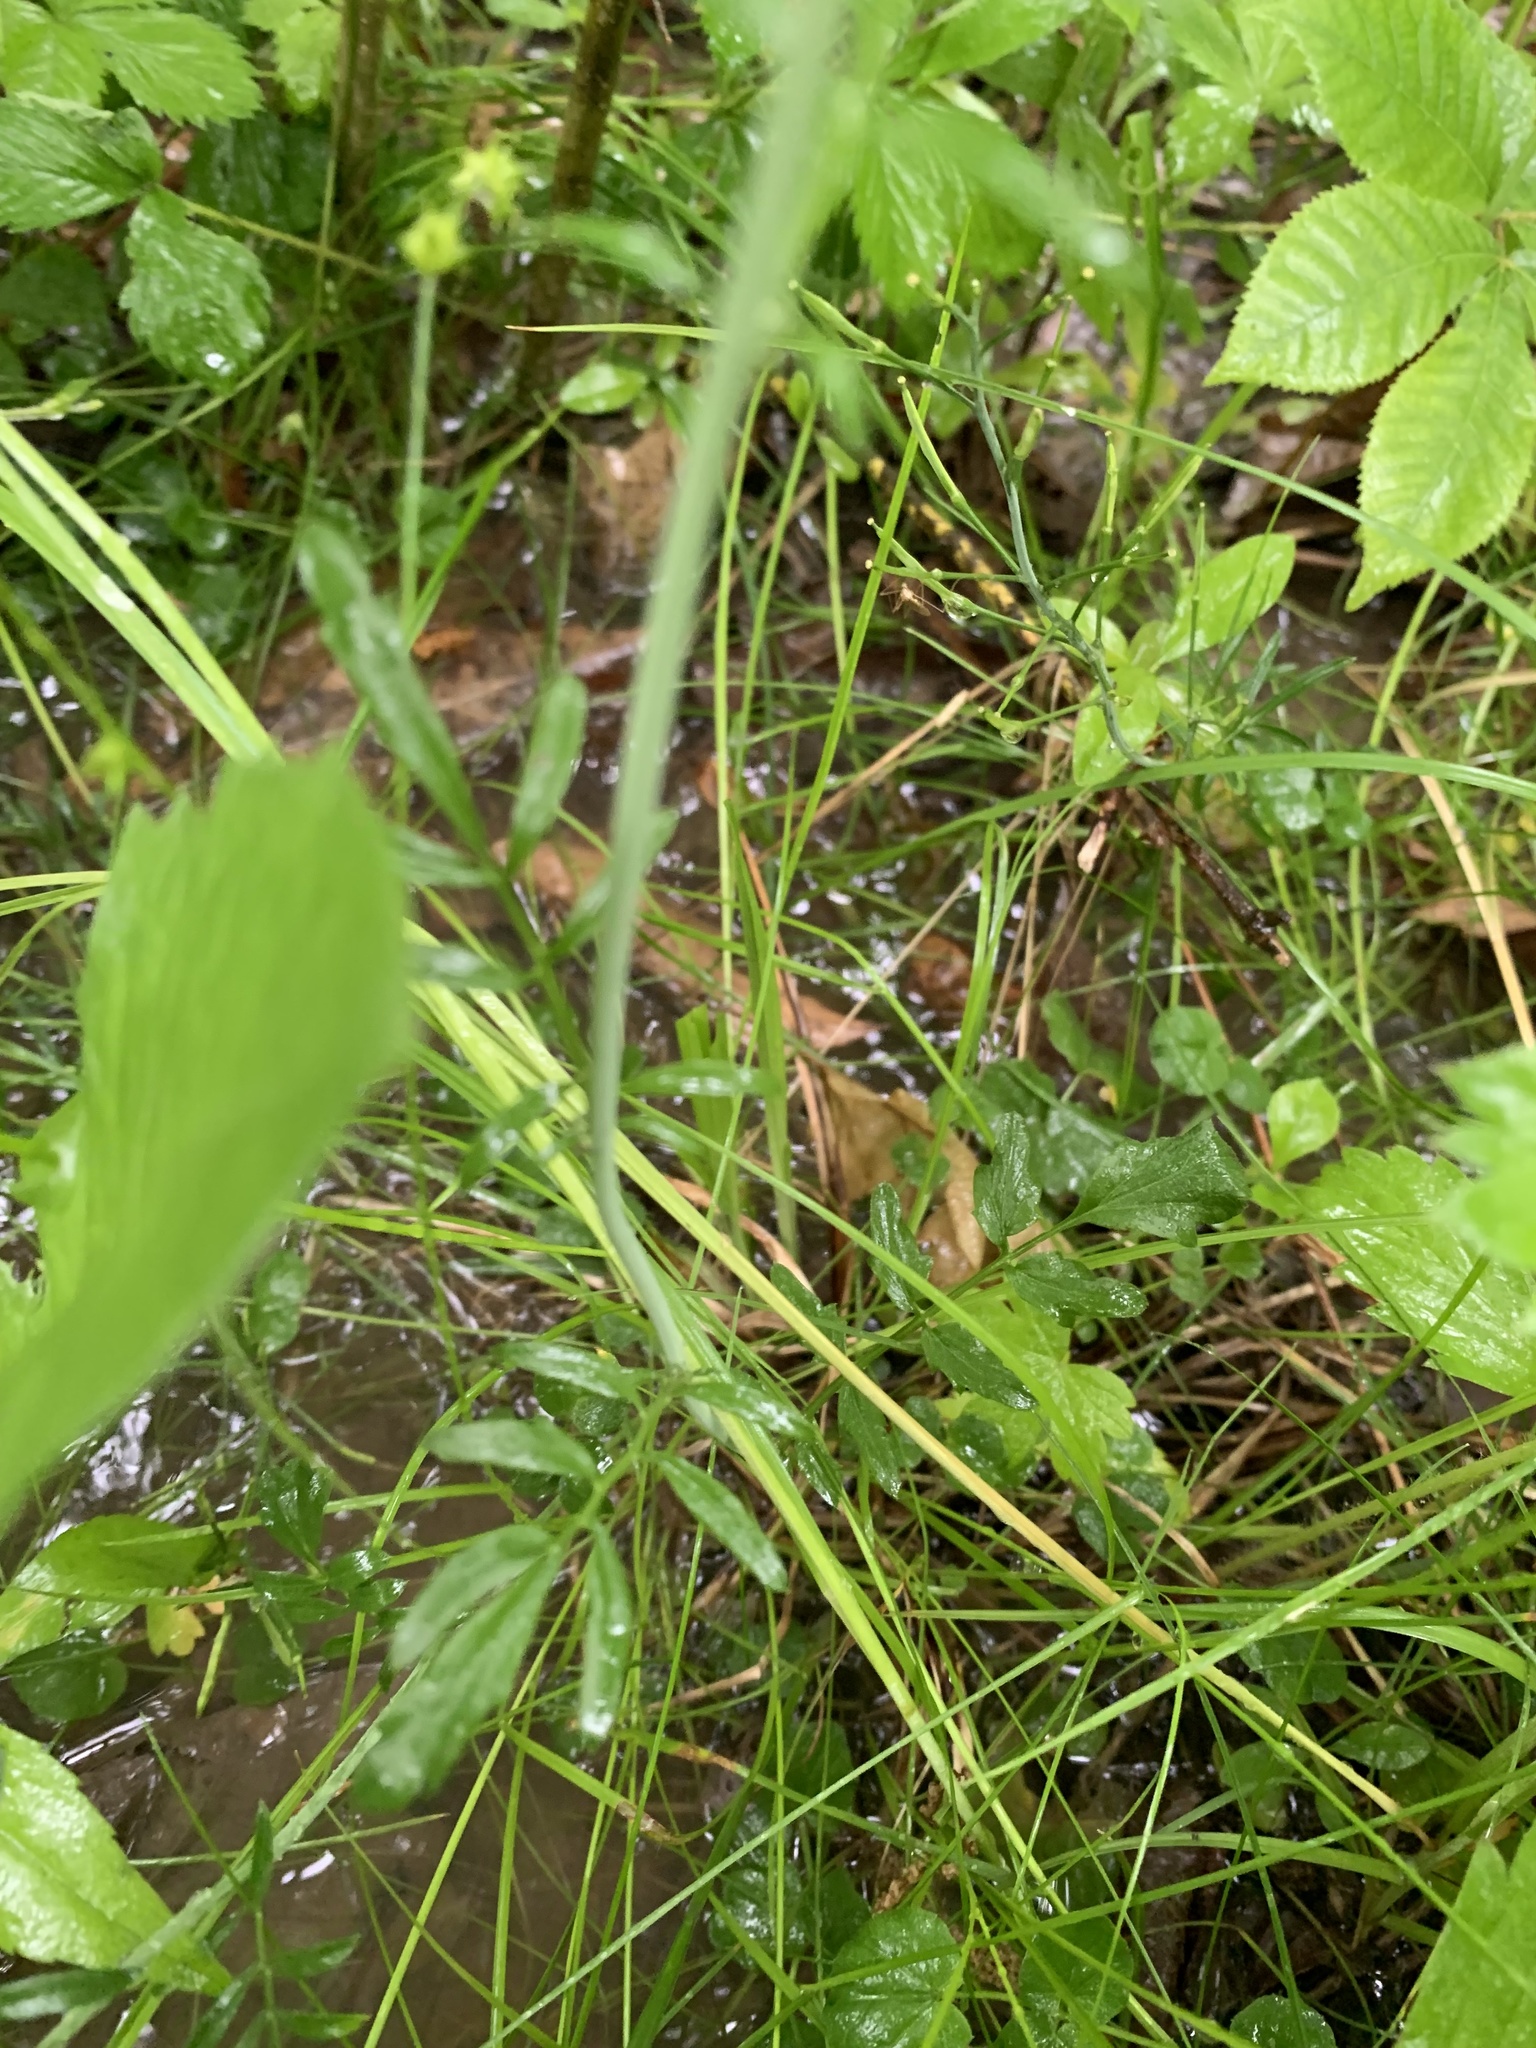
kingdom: Plantae
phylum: Tracheophyta
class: Magnoliopsida
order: Brassicales
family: Brassicaceae
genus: Cardamine
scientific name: Cardamine pratensis
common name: Cuckoo flower
